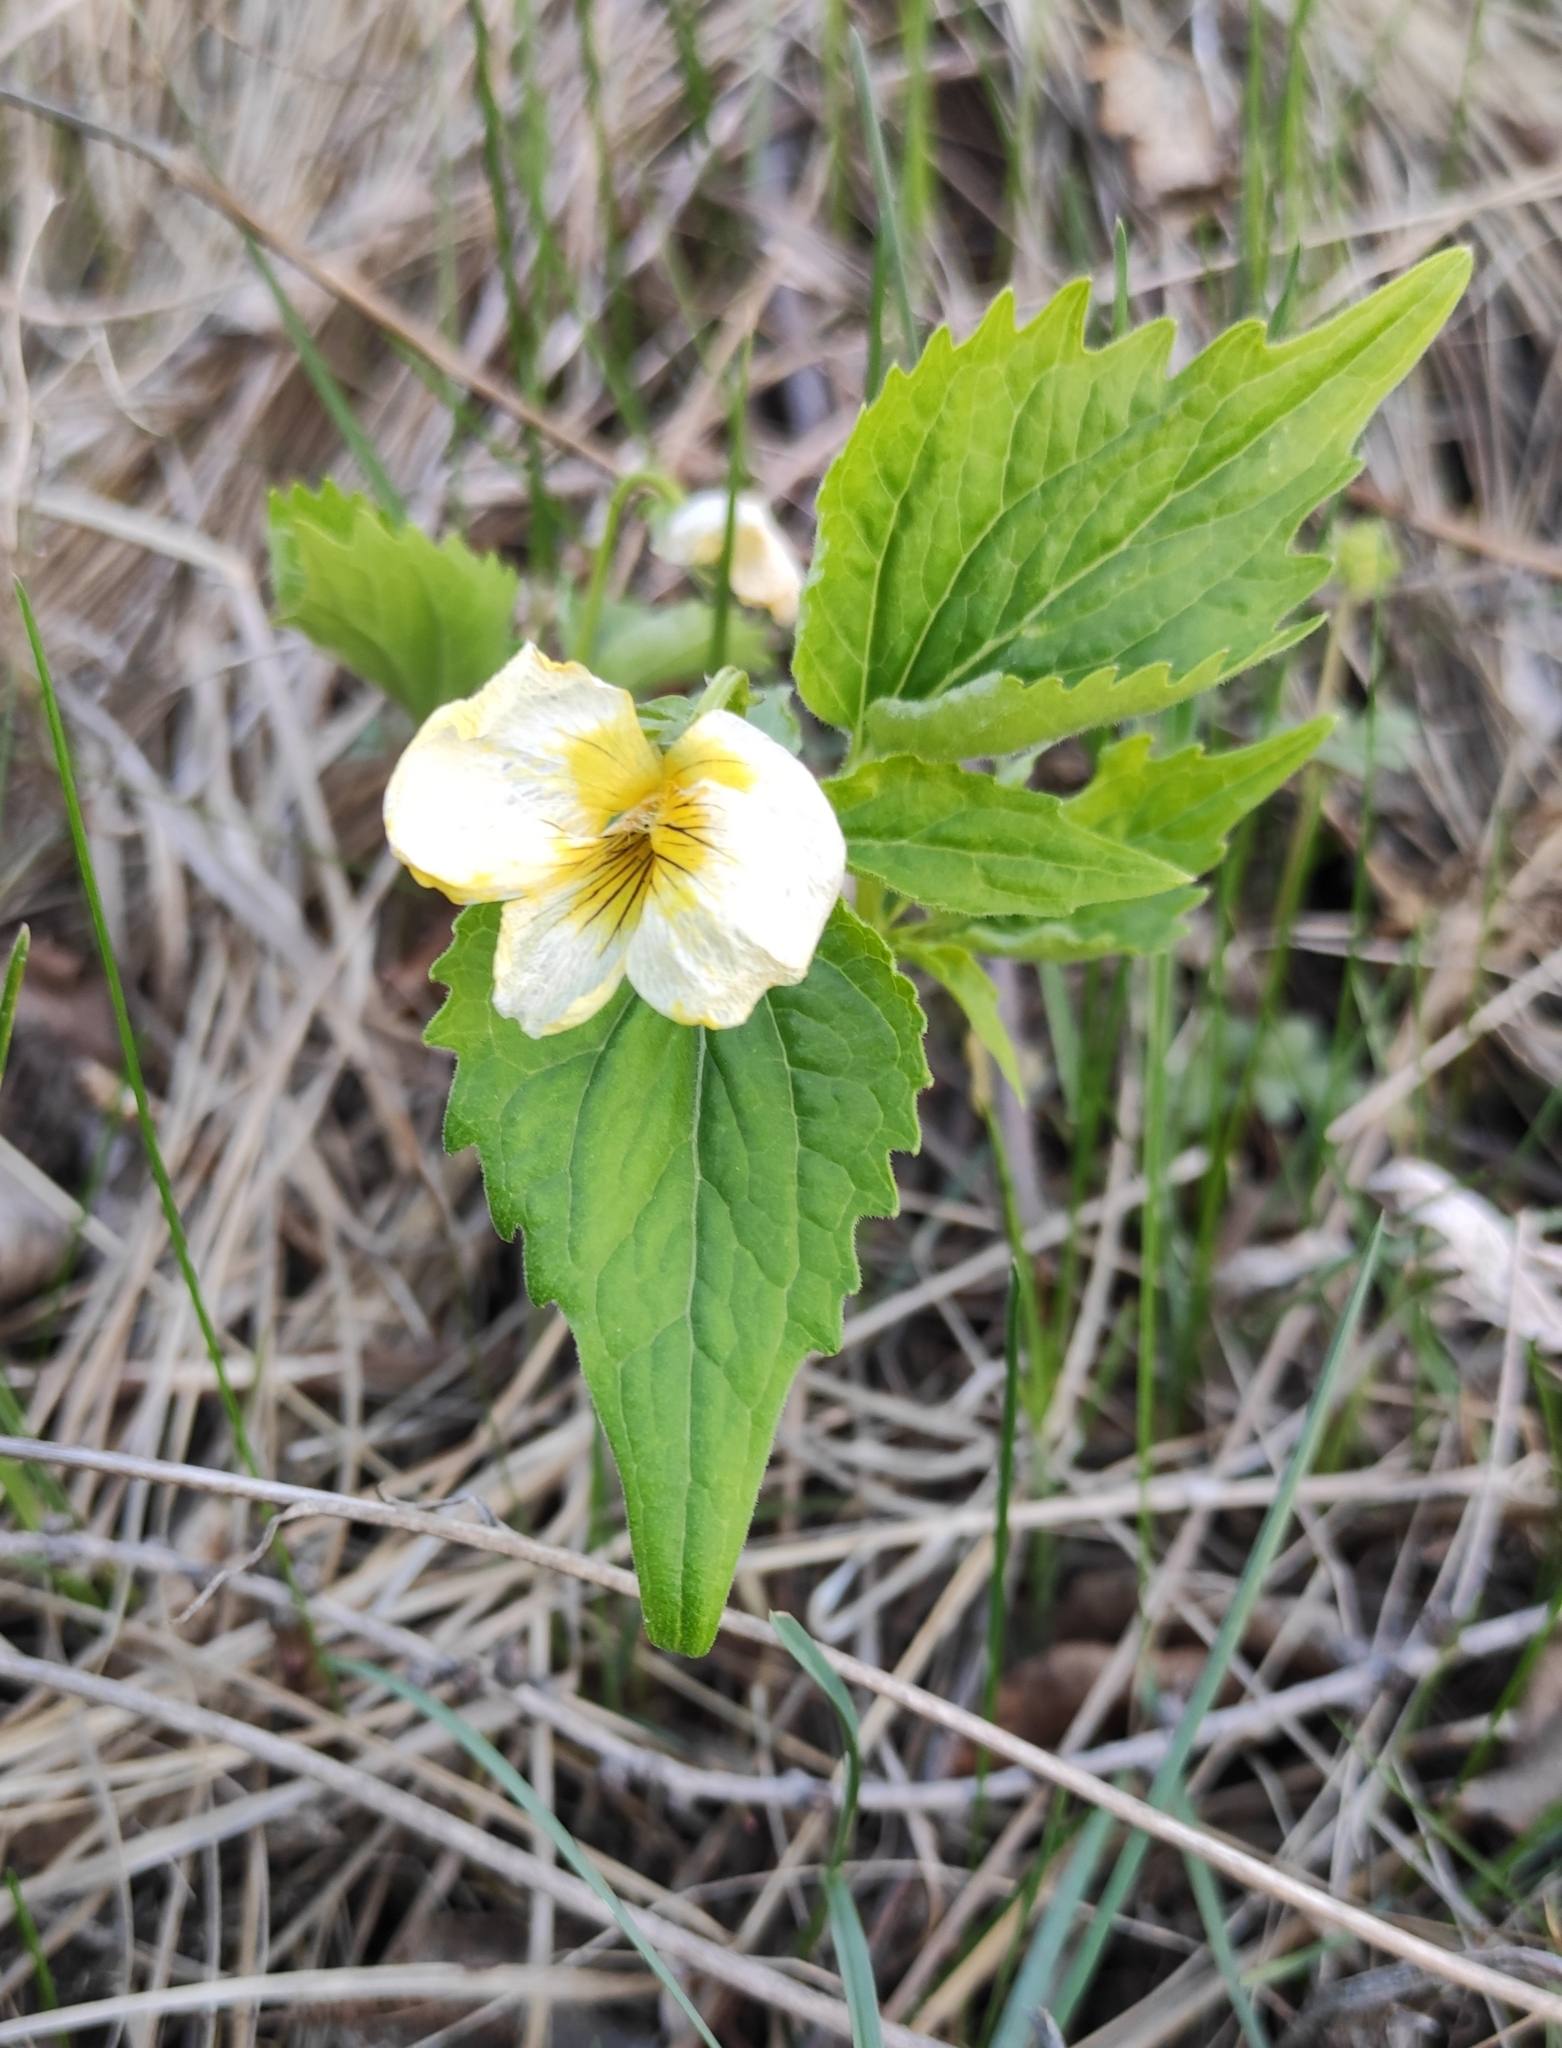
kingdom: Plantae
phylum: Tracheophyta
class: Magnoliopsida
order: Malpighiales
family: Violaceae
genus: Viola
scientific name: Viola uniflora
